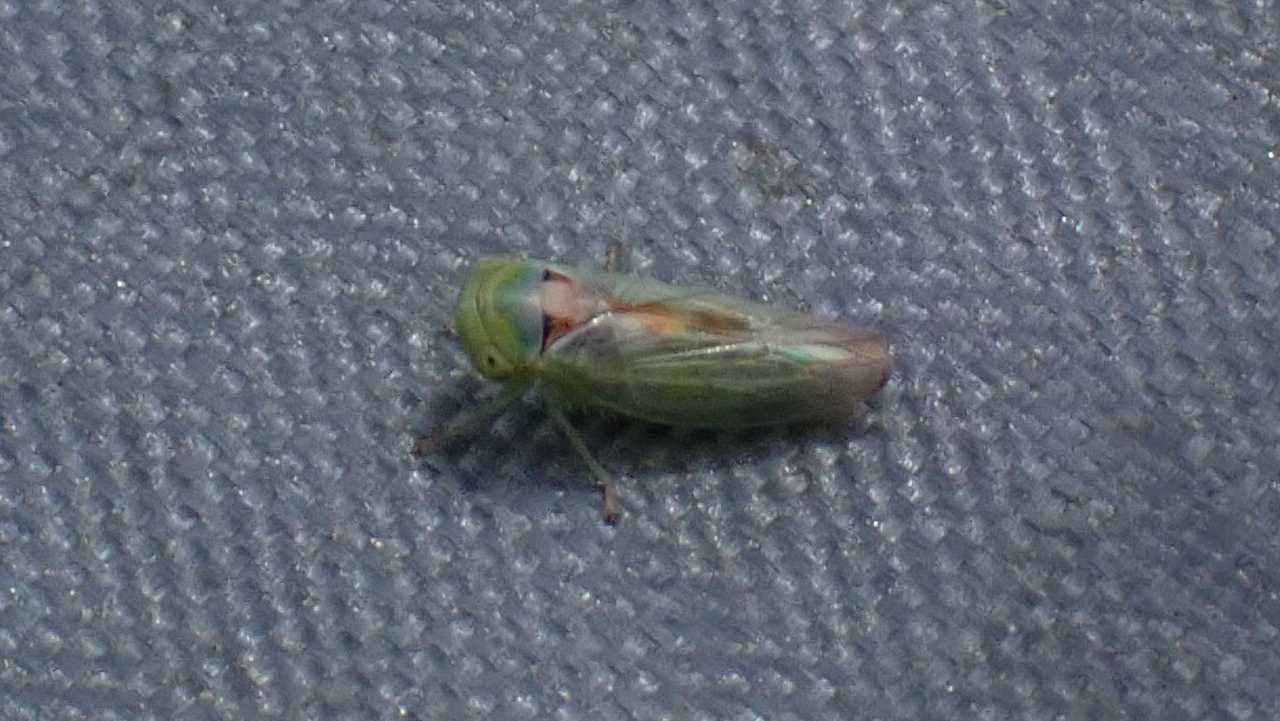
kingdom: Animalia
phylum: Arthropoda
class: Insecta
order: Hemiptera
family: Cicadellidae
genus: Viridicerus
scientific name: Viridicerus ustulatus
